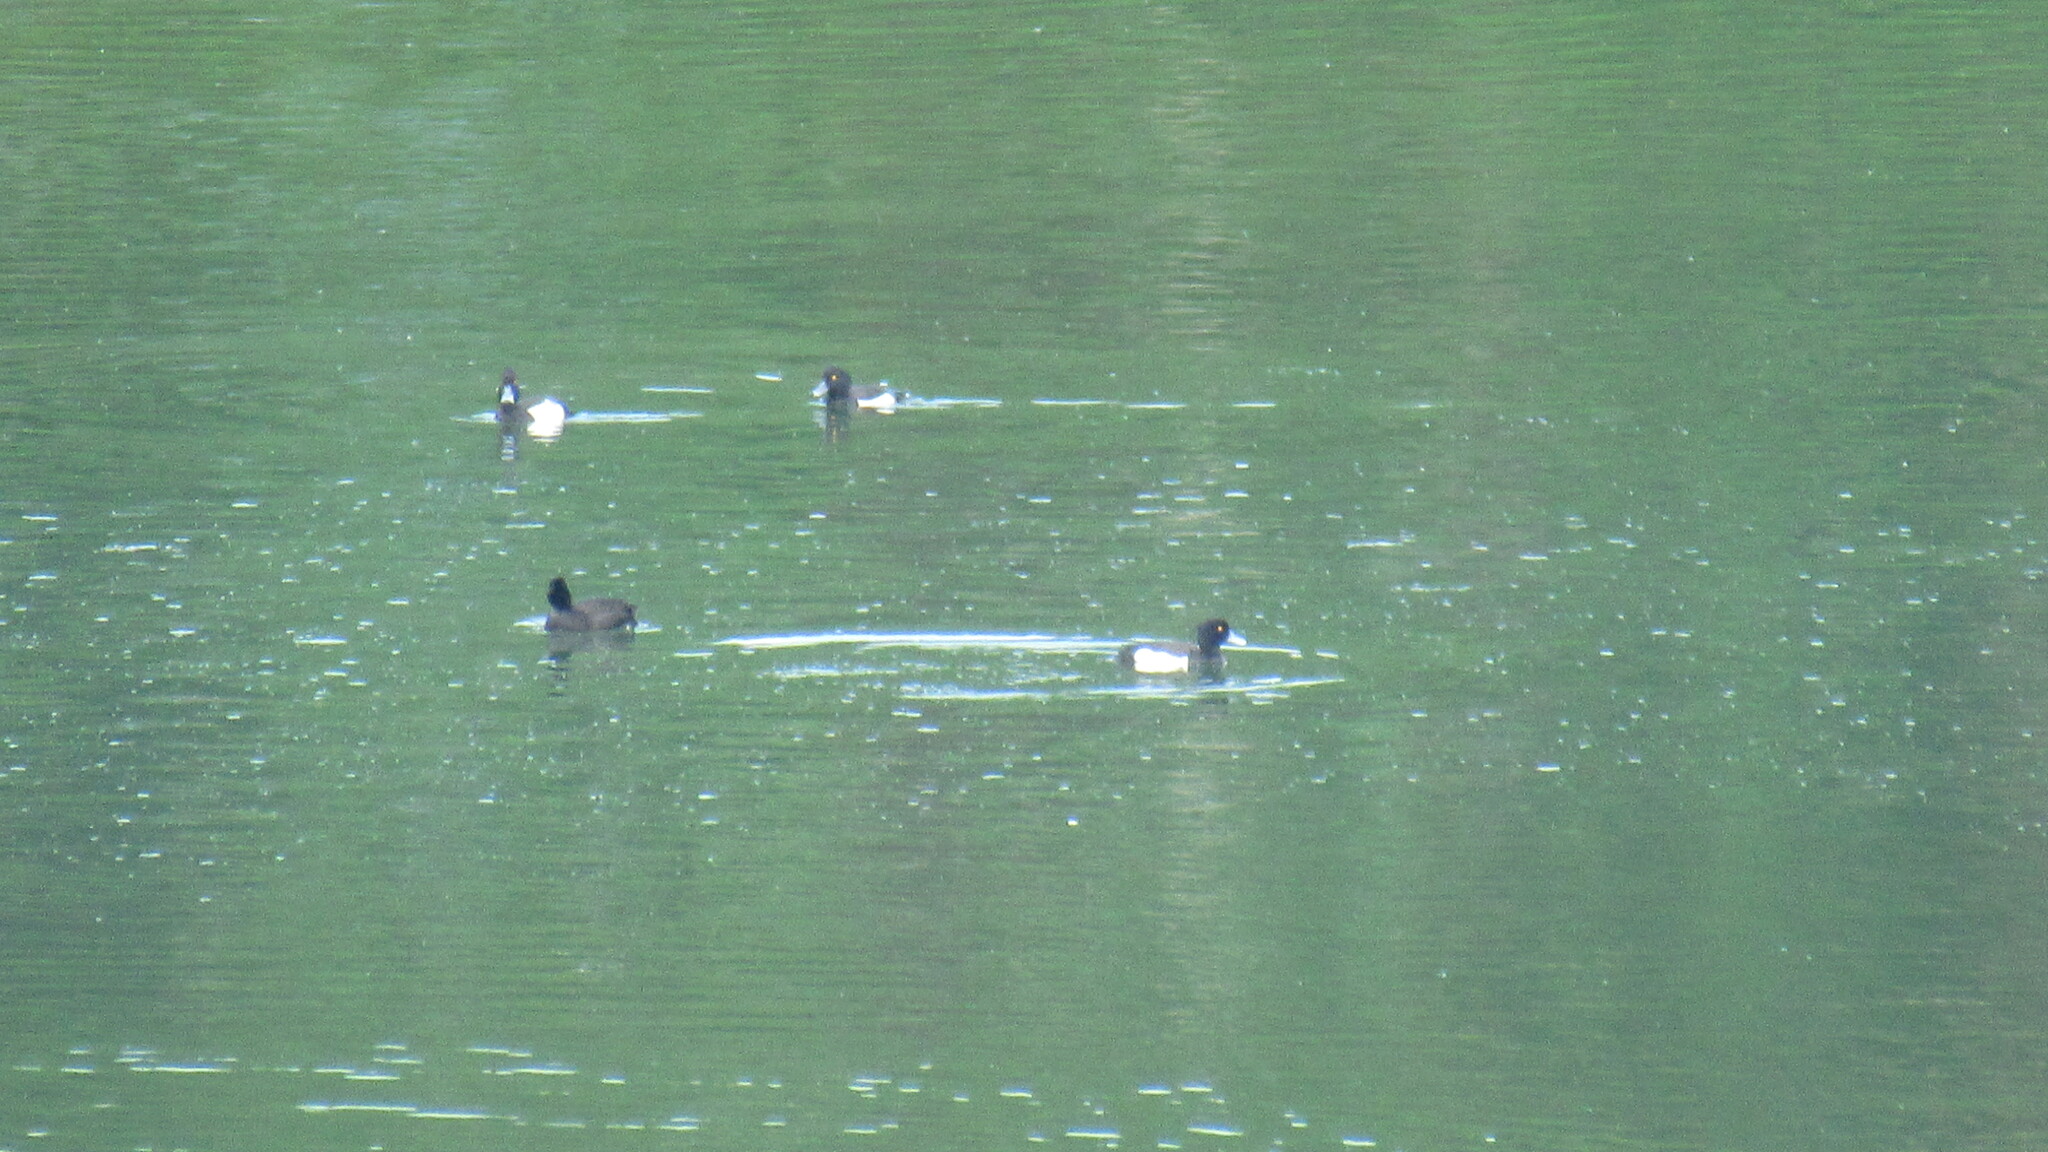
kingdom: Animalia
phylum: Chordata
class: Aves
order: Anseriformes
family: Anatidae
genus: Aythya
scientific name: Aythya fuligula
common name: Tufted duck
